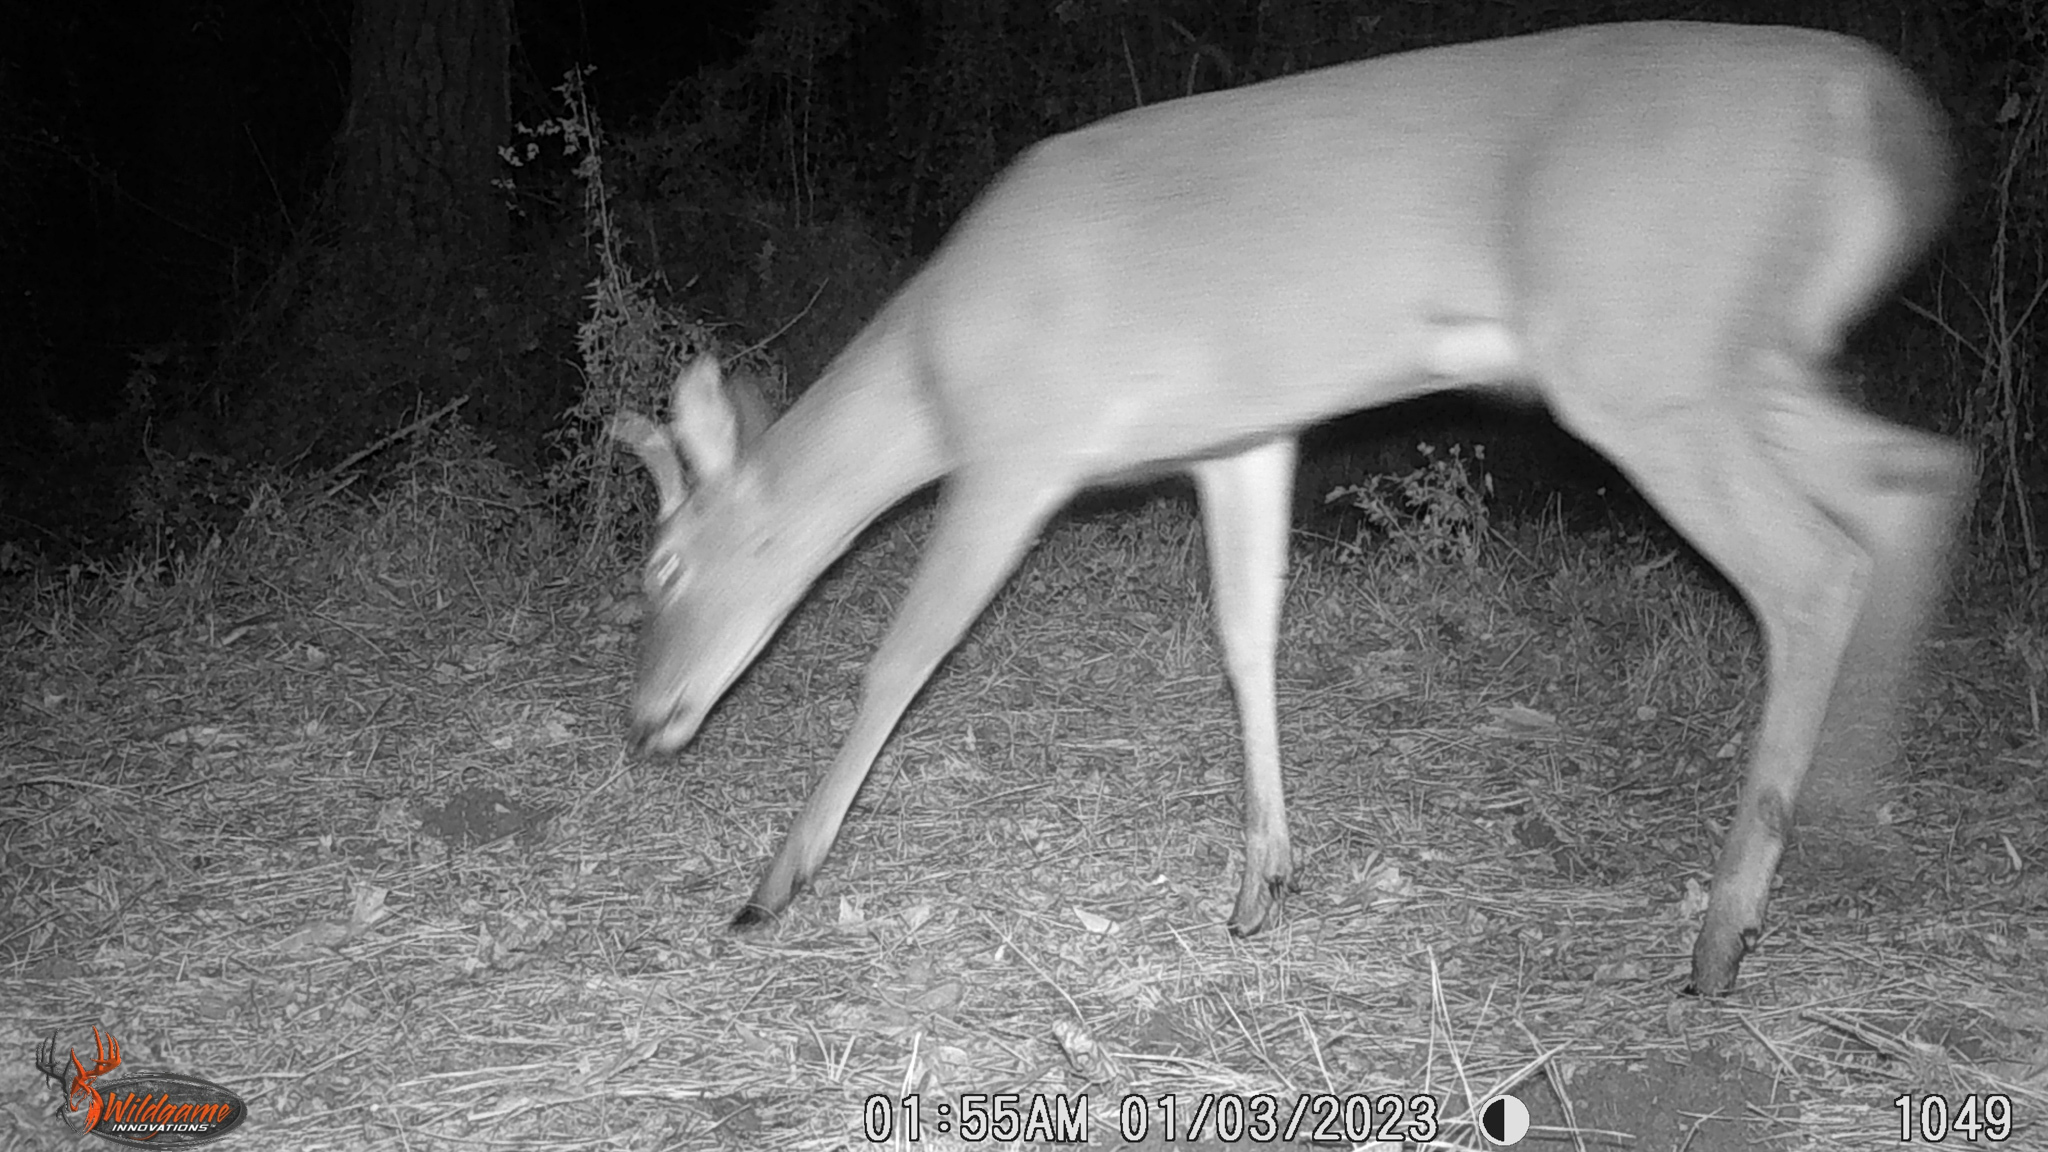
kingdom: Animalia
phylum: Chordata
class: Mammalia
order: Artiodactyla
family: Cervidae
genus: Odocoileus
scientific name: Odocoileus virginianus
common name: White-tailed deer
